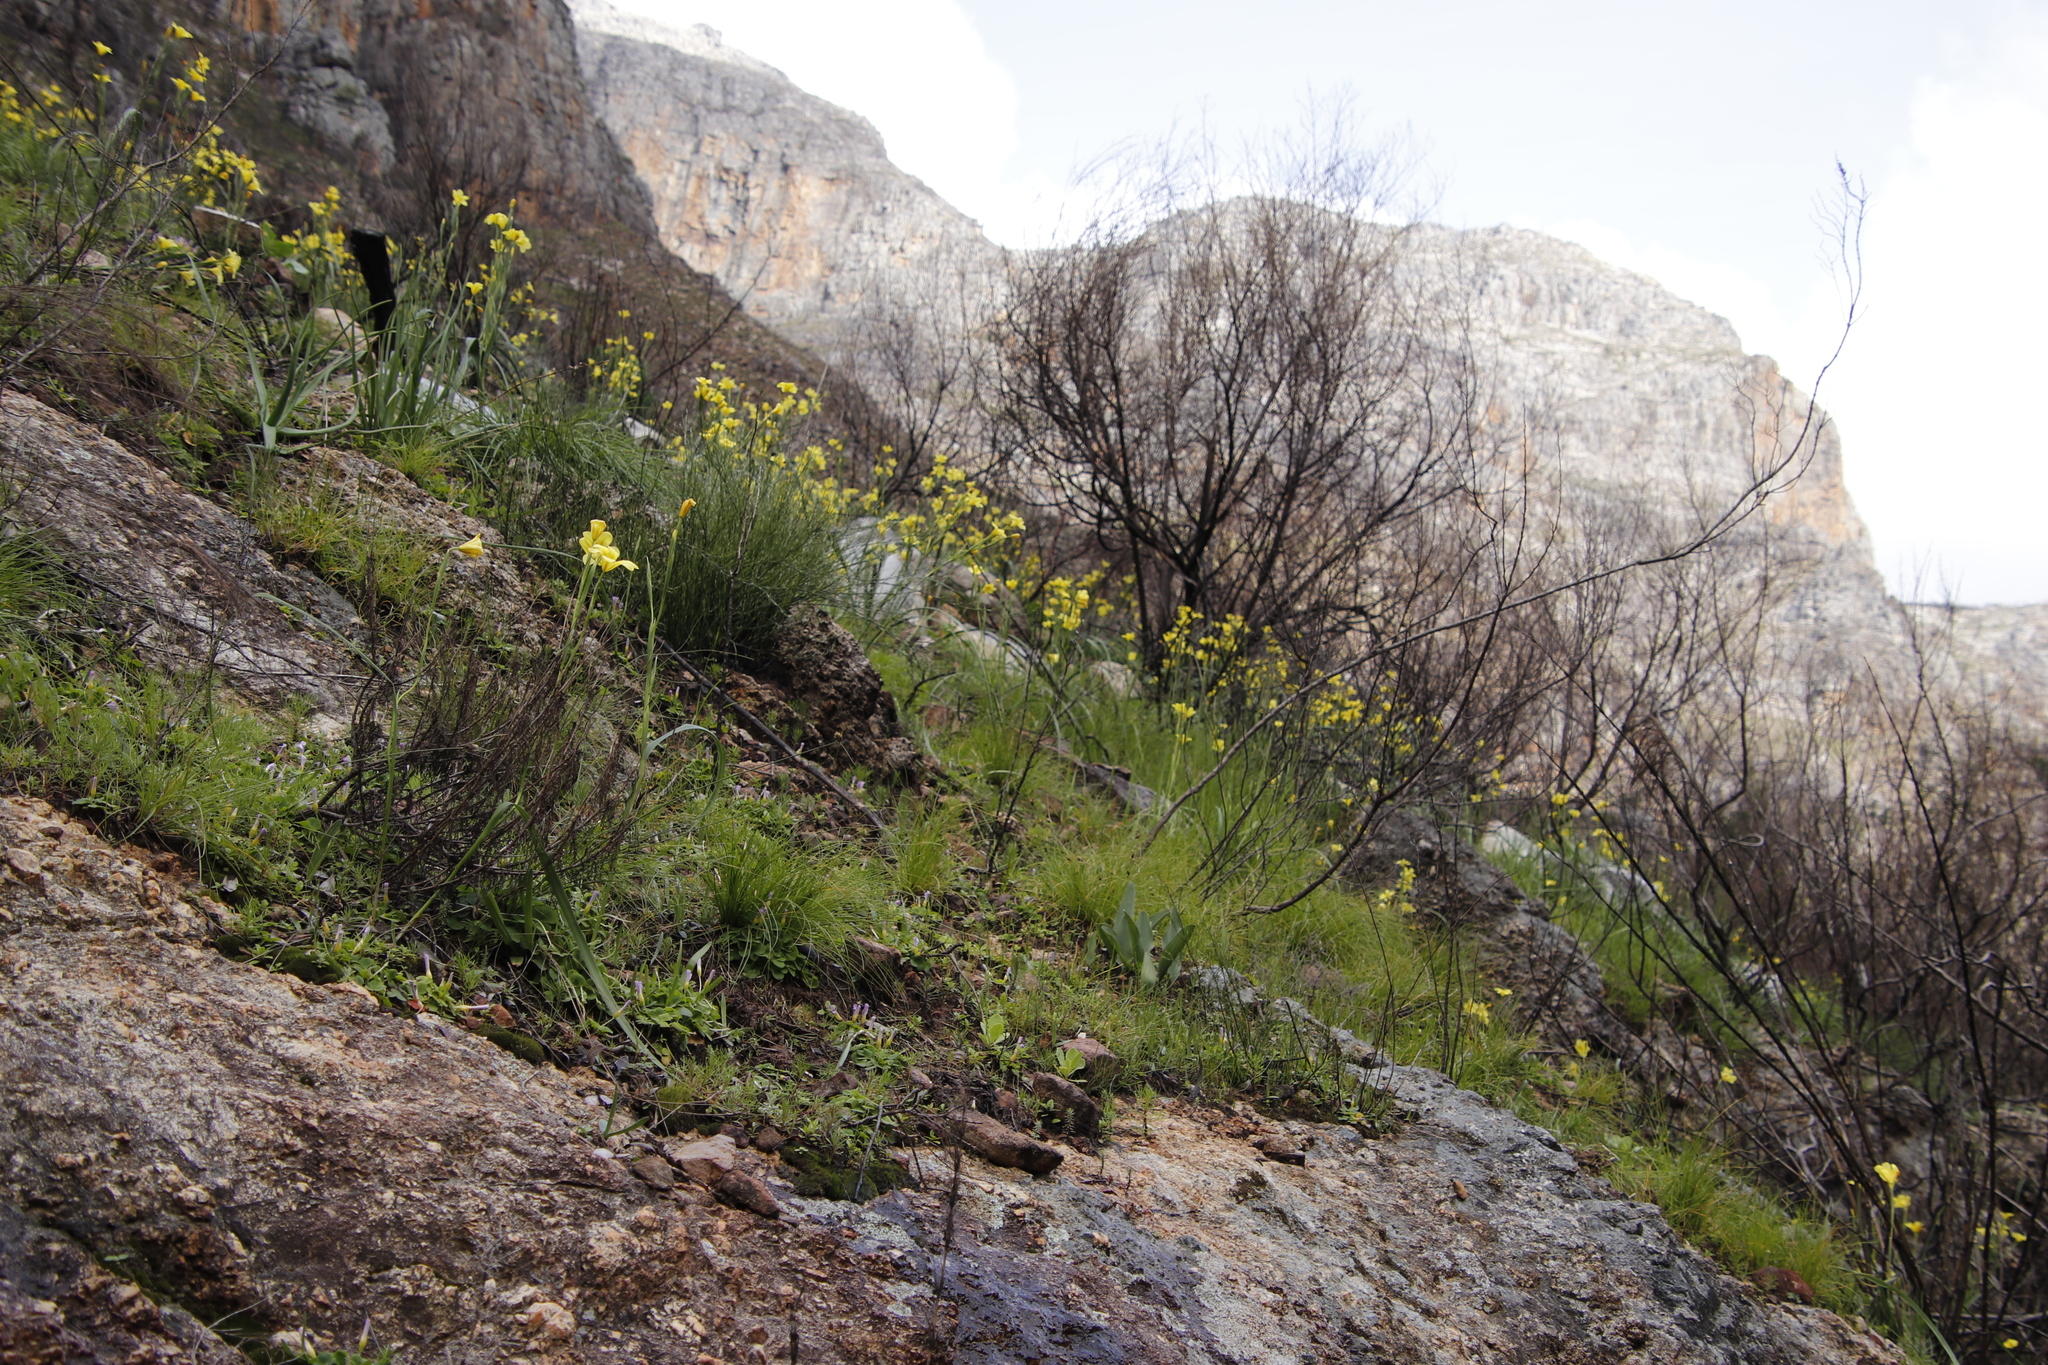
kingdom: Plantae
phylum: Tracheophyta
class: Liliopsida
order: Asparagales
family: Iridaceae
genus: Moraea
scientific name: Moraea ochroleuca
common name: Red tulp
